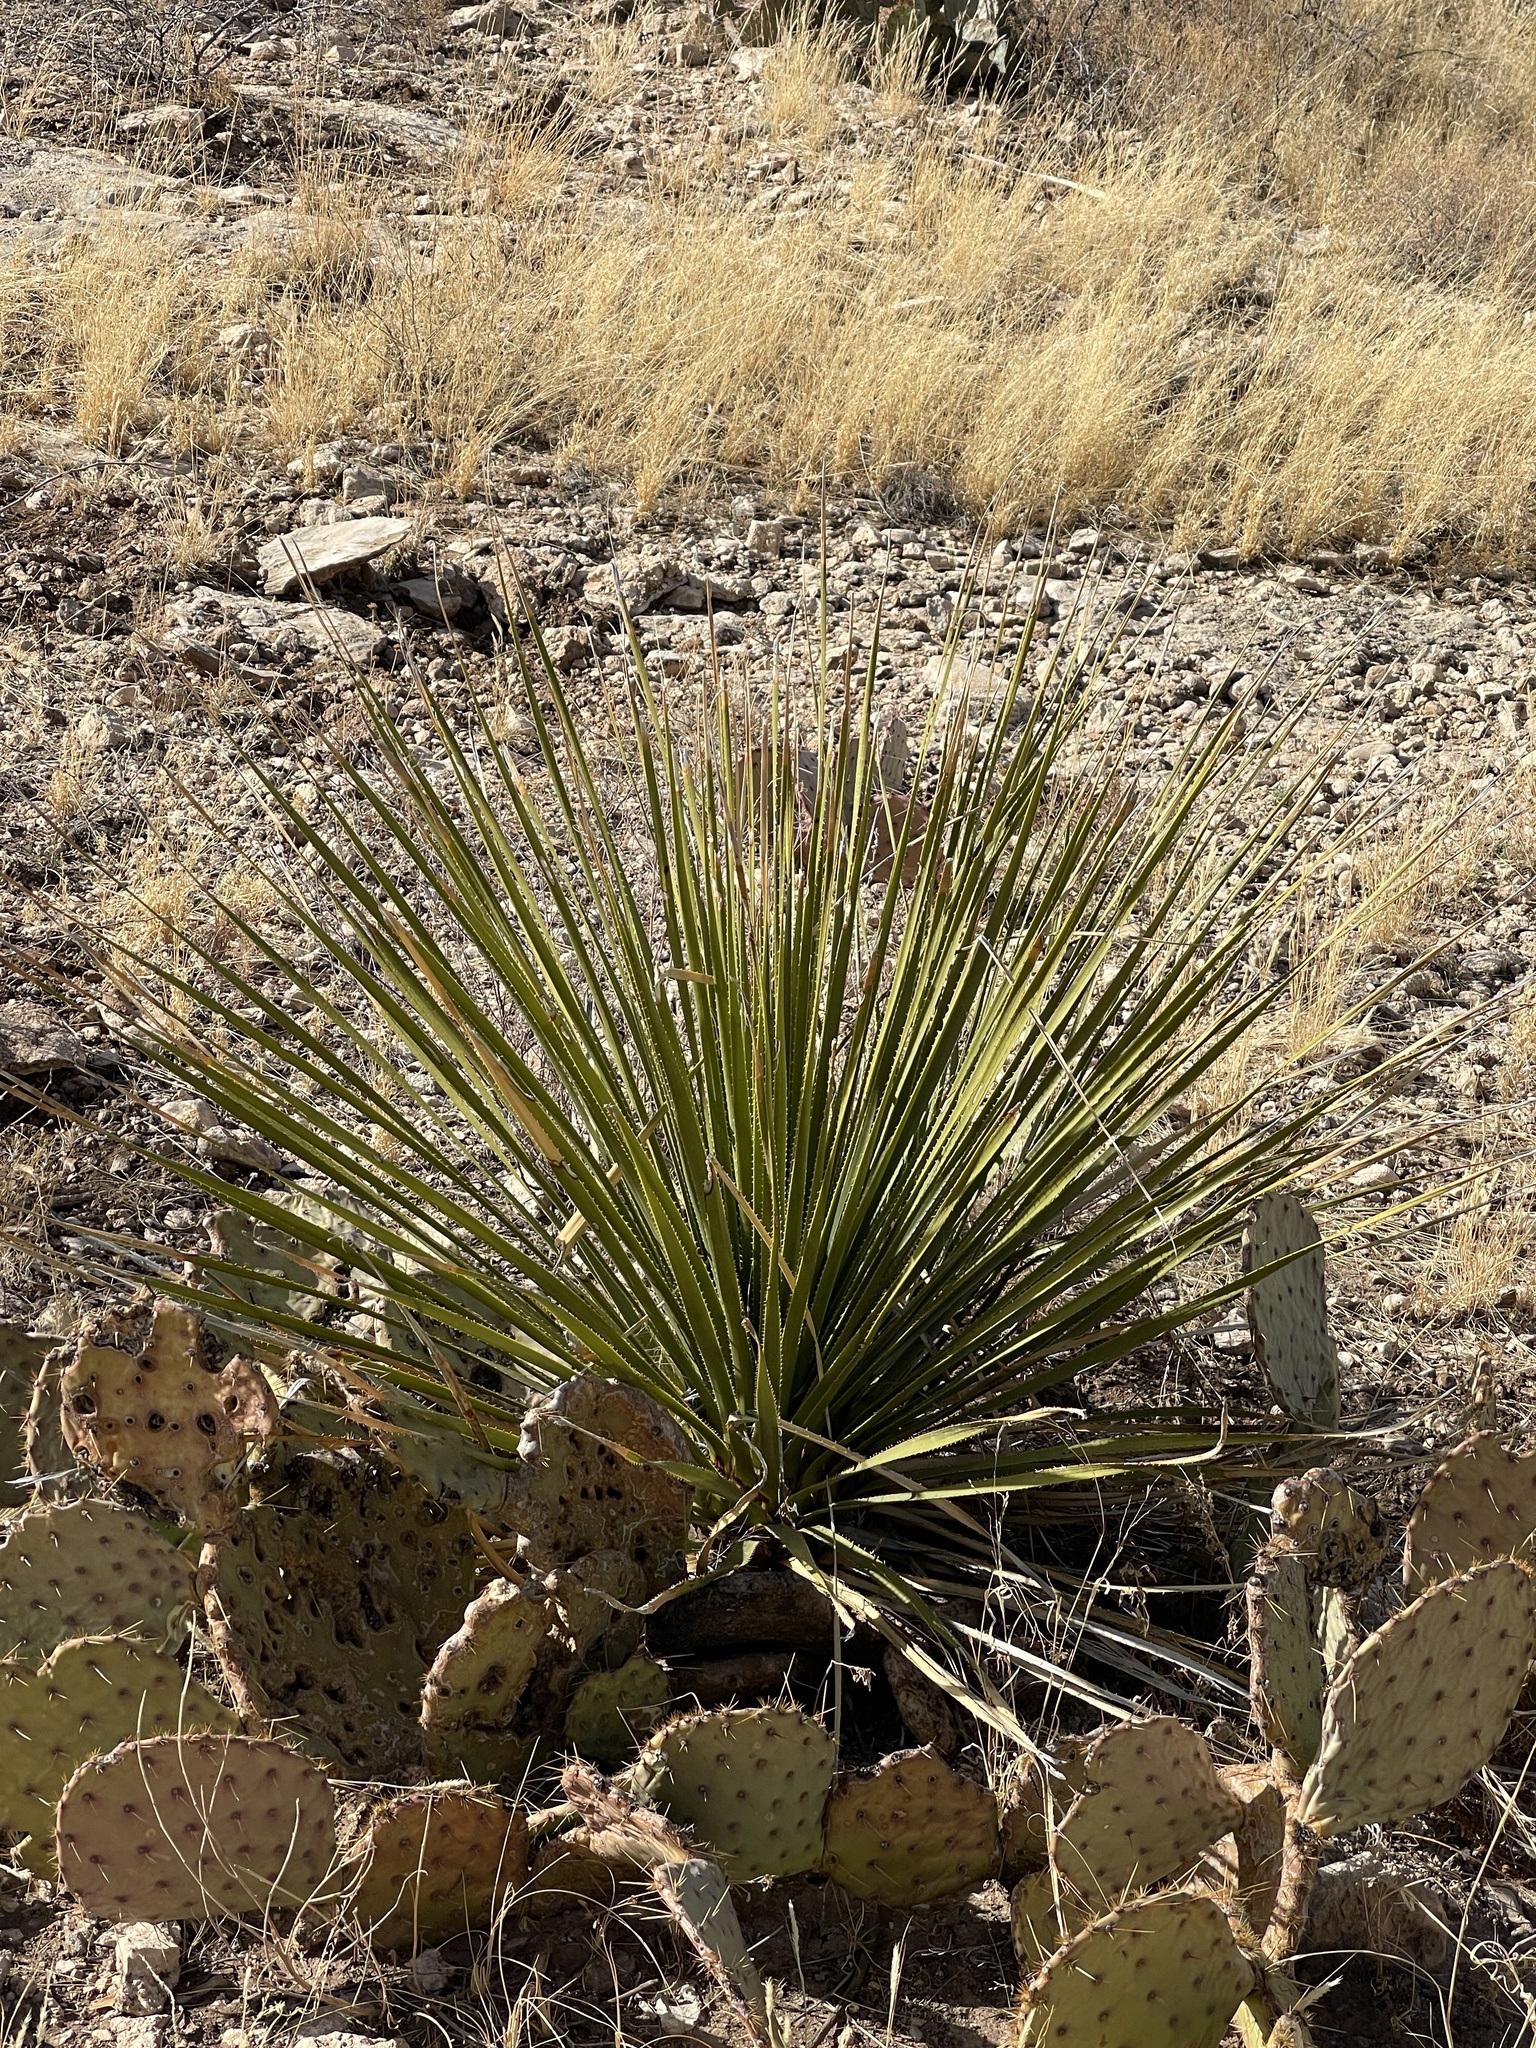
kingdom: Plantae
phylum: Tracheophyta
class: Liliopsida
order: Asparagales
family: Asparagaceae
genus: Dasylirion
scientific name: Dasylirion leiophyllum
